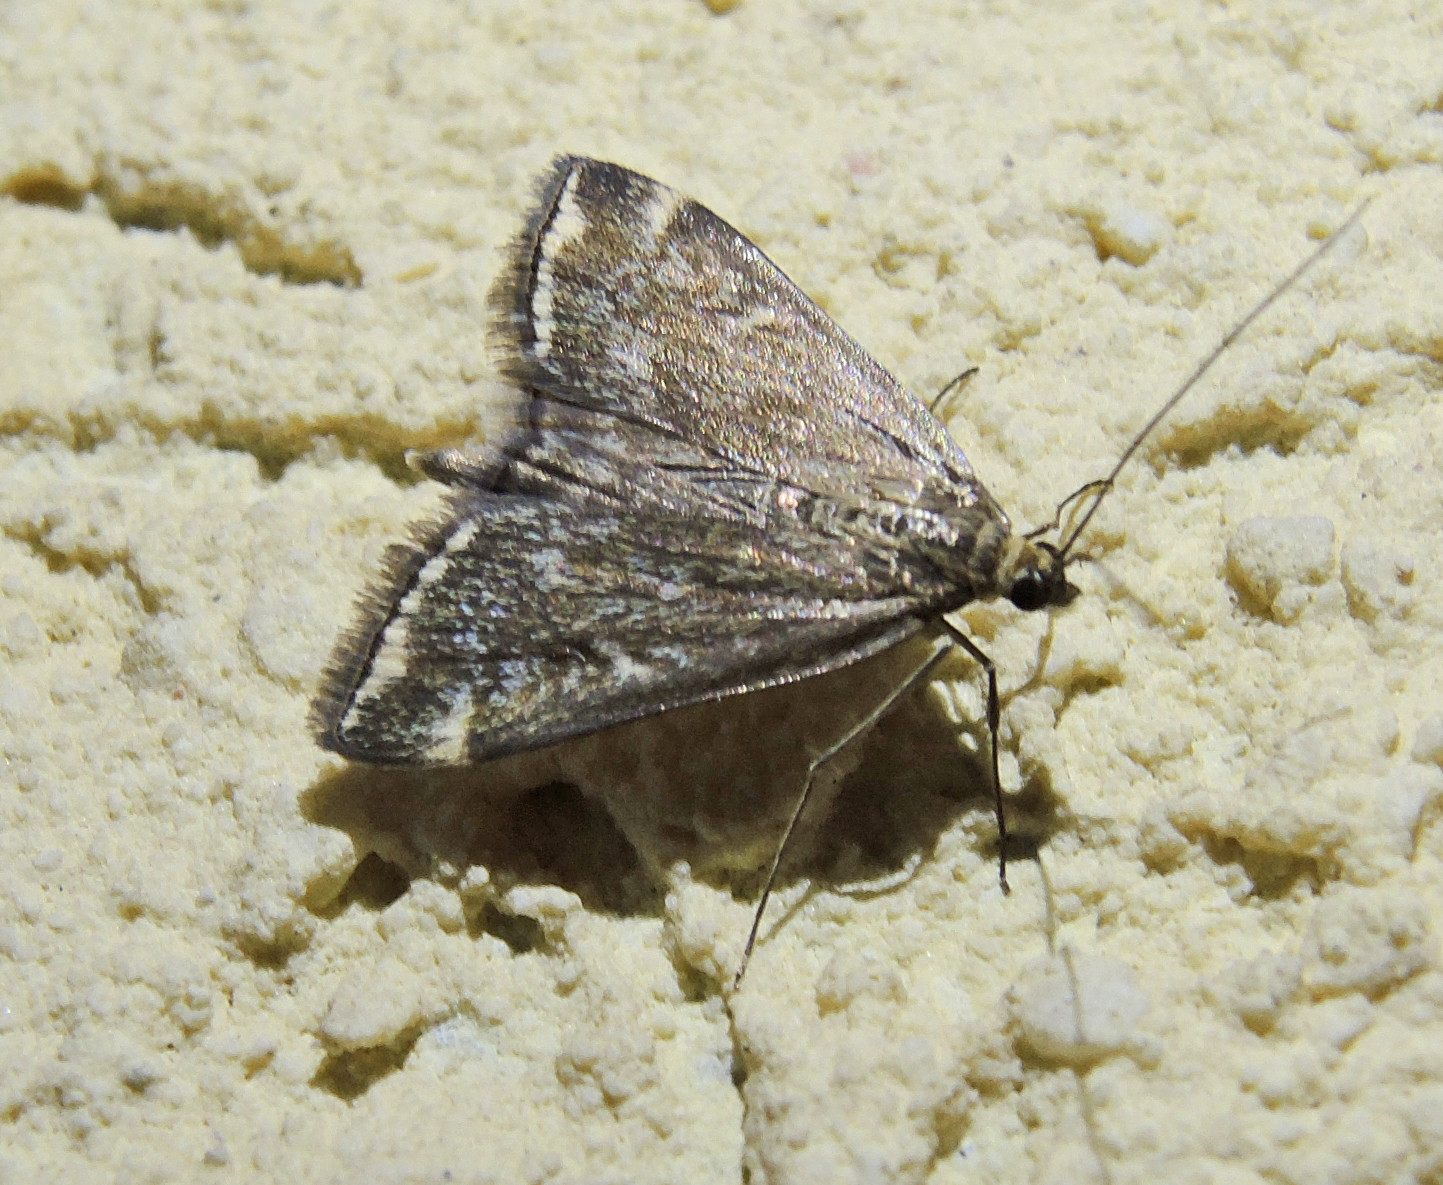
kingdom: Animalia
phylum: Arthropoda
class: Insecta
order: Lepidoptera
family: Crambidae
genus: Loxostege
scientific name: Loxostege sticticalis
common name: Crambid moth
